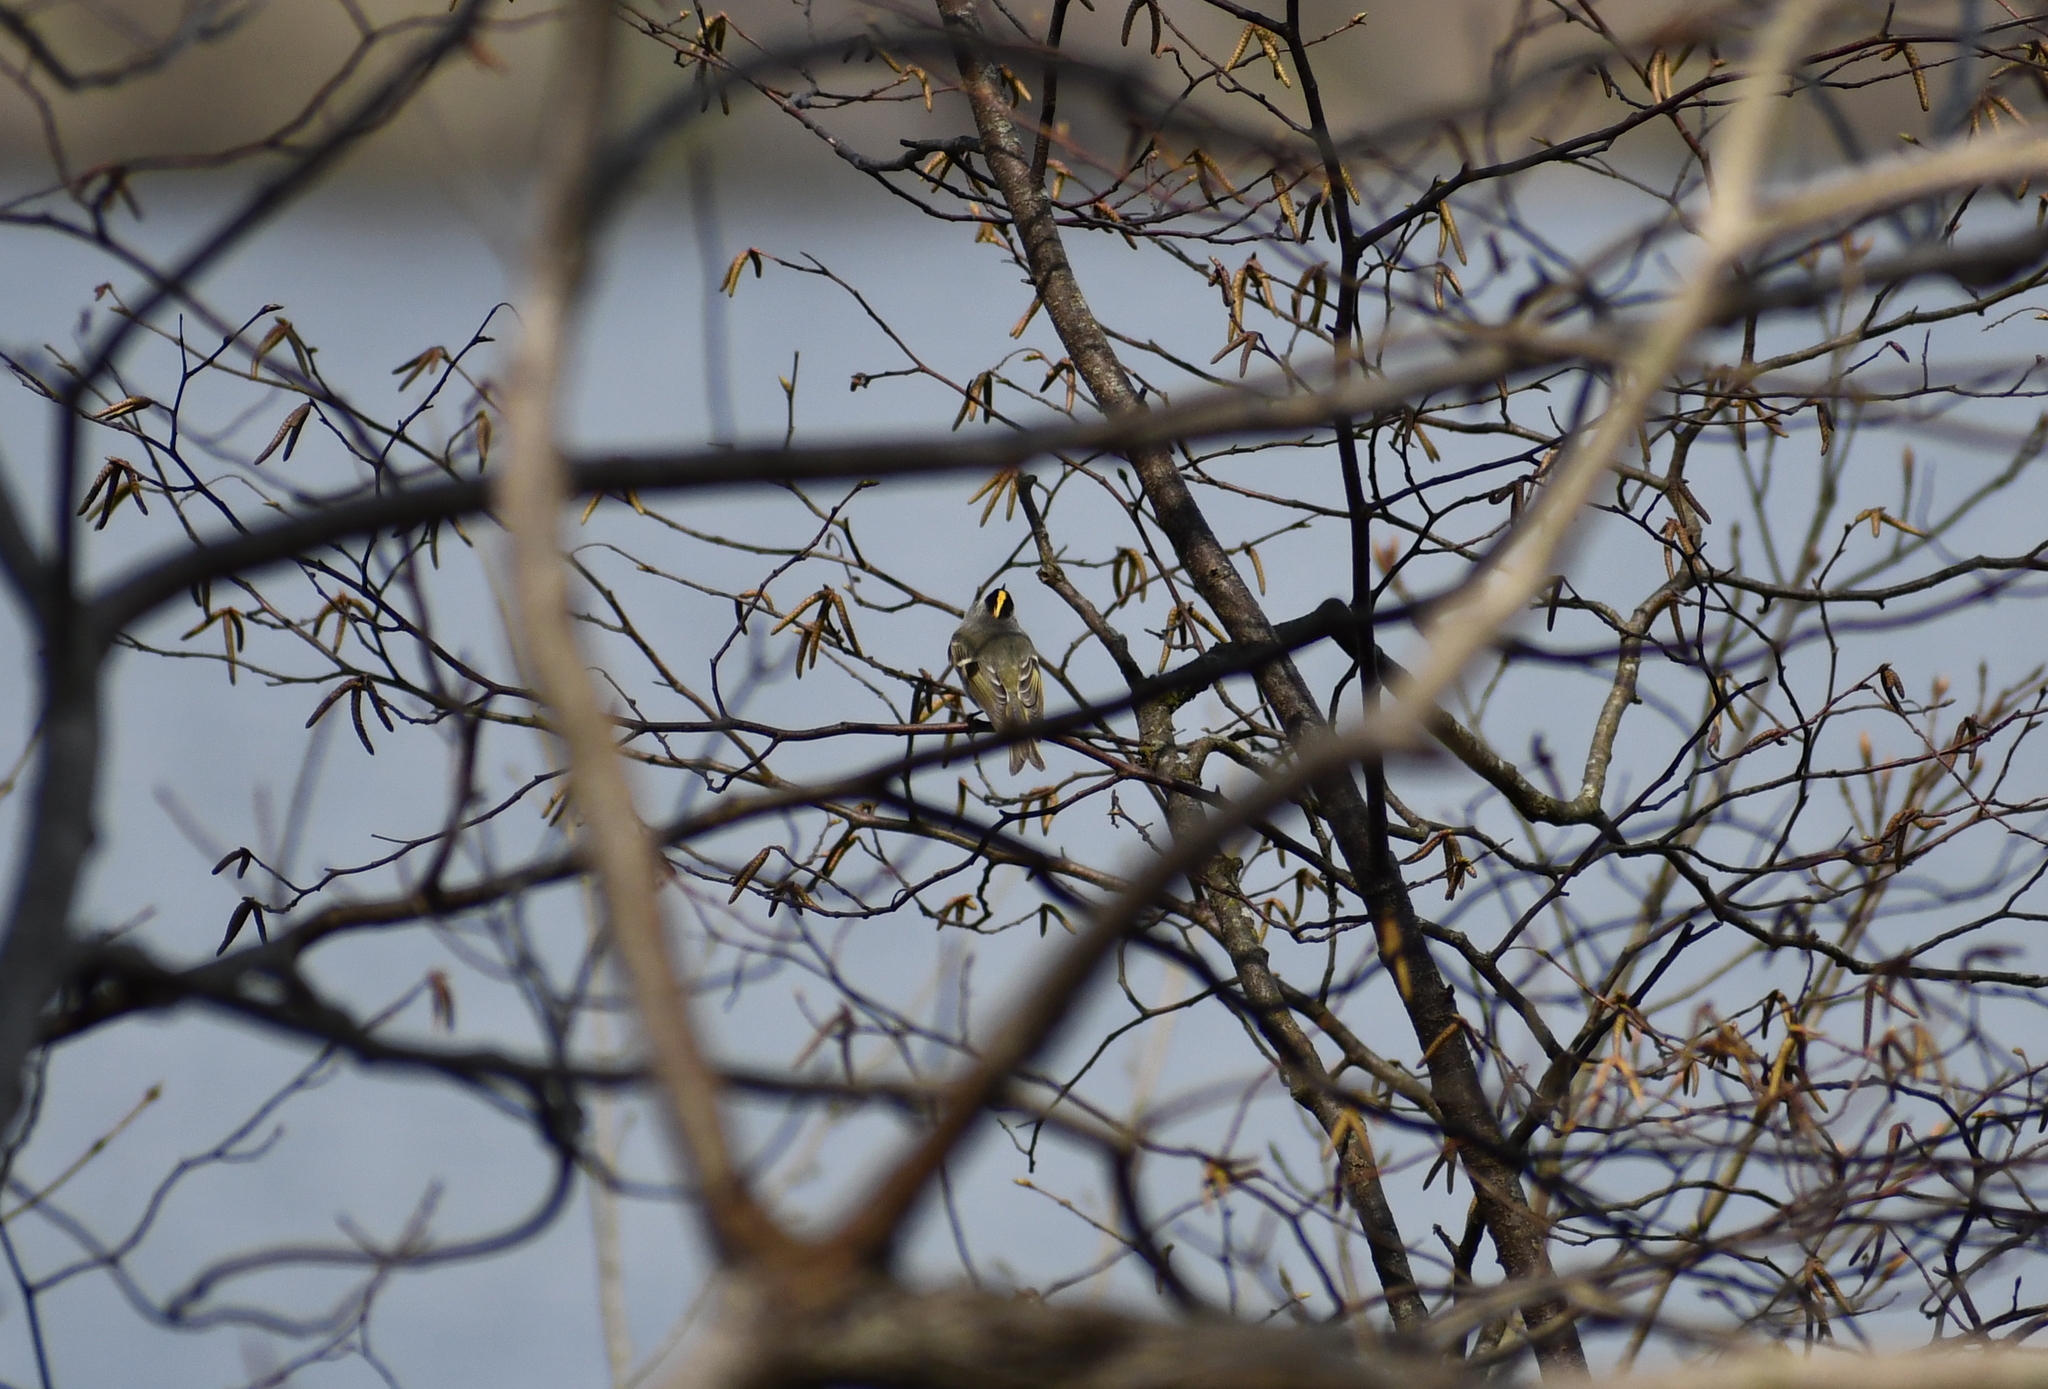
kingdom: Animalia
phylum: Chordata
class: Aves
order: Passeriformes
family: Regulidae
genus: Regulus
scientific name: Regulus satrapa
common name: Golden-crowned kinglet
